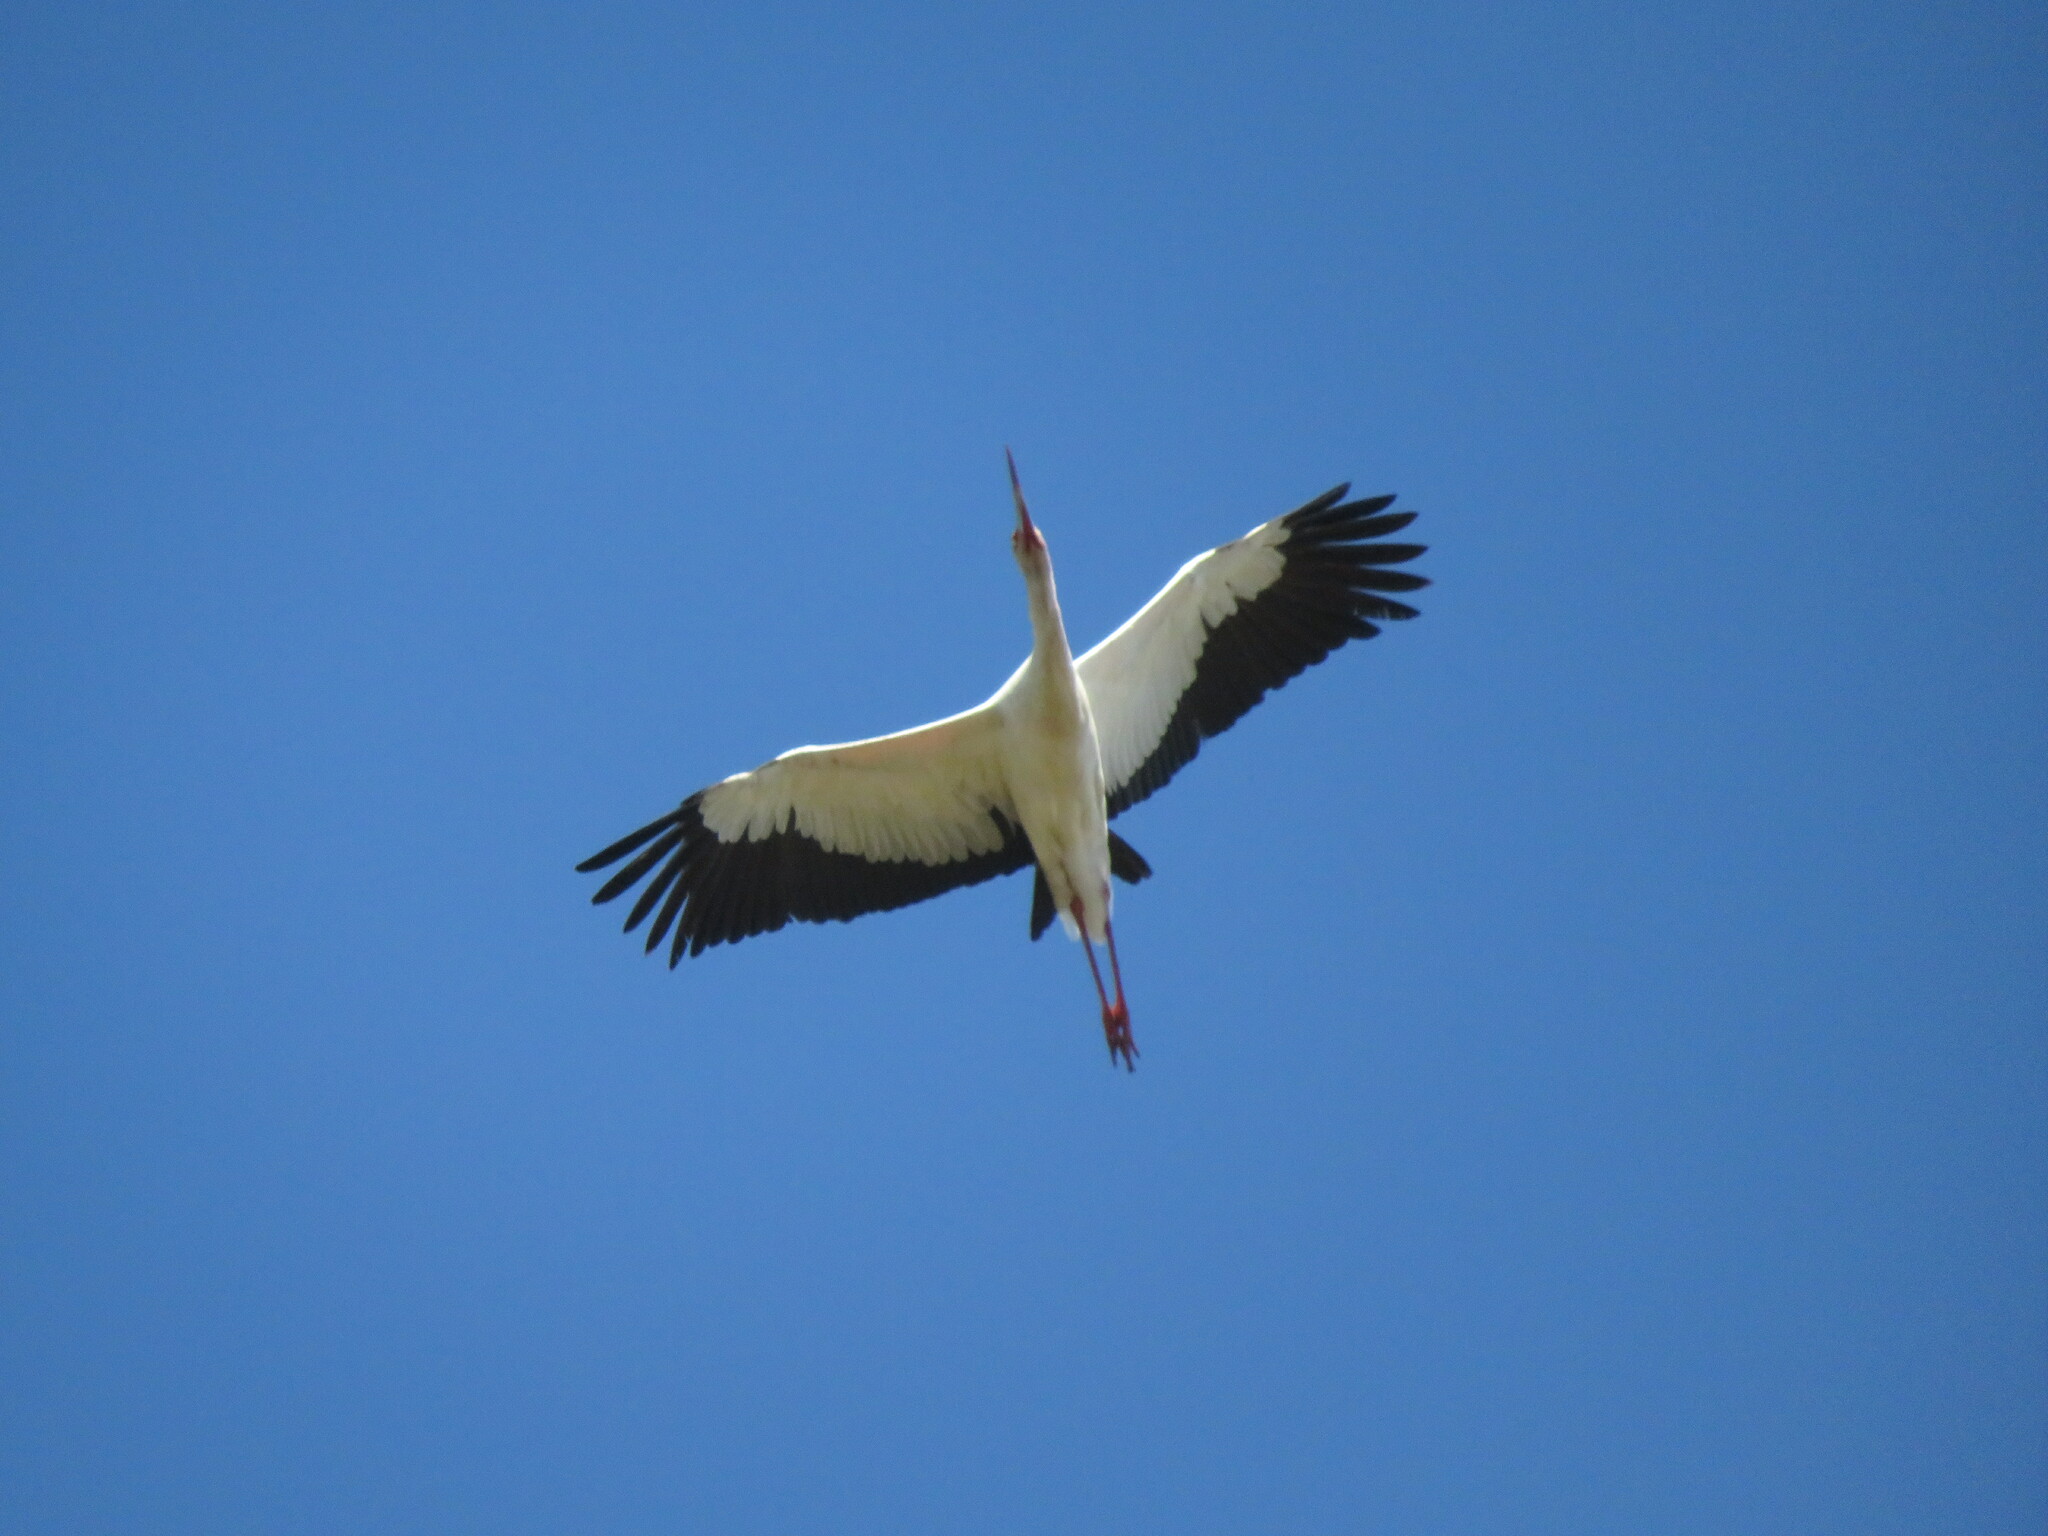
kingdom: Animalia
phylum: Chordata
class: Aves
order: Ciconiiformes
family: Ciconiidae
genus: Ciconia
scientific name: Ciconia maguari
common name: Maguari stork
